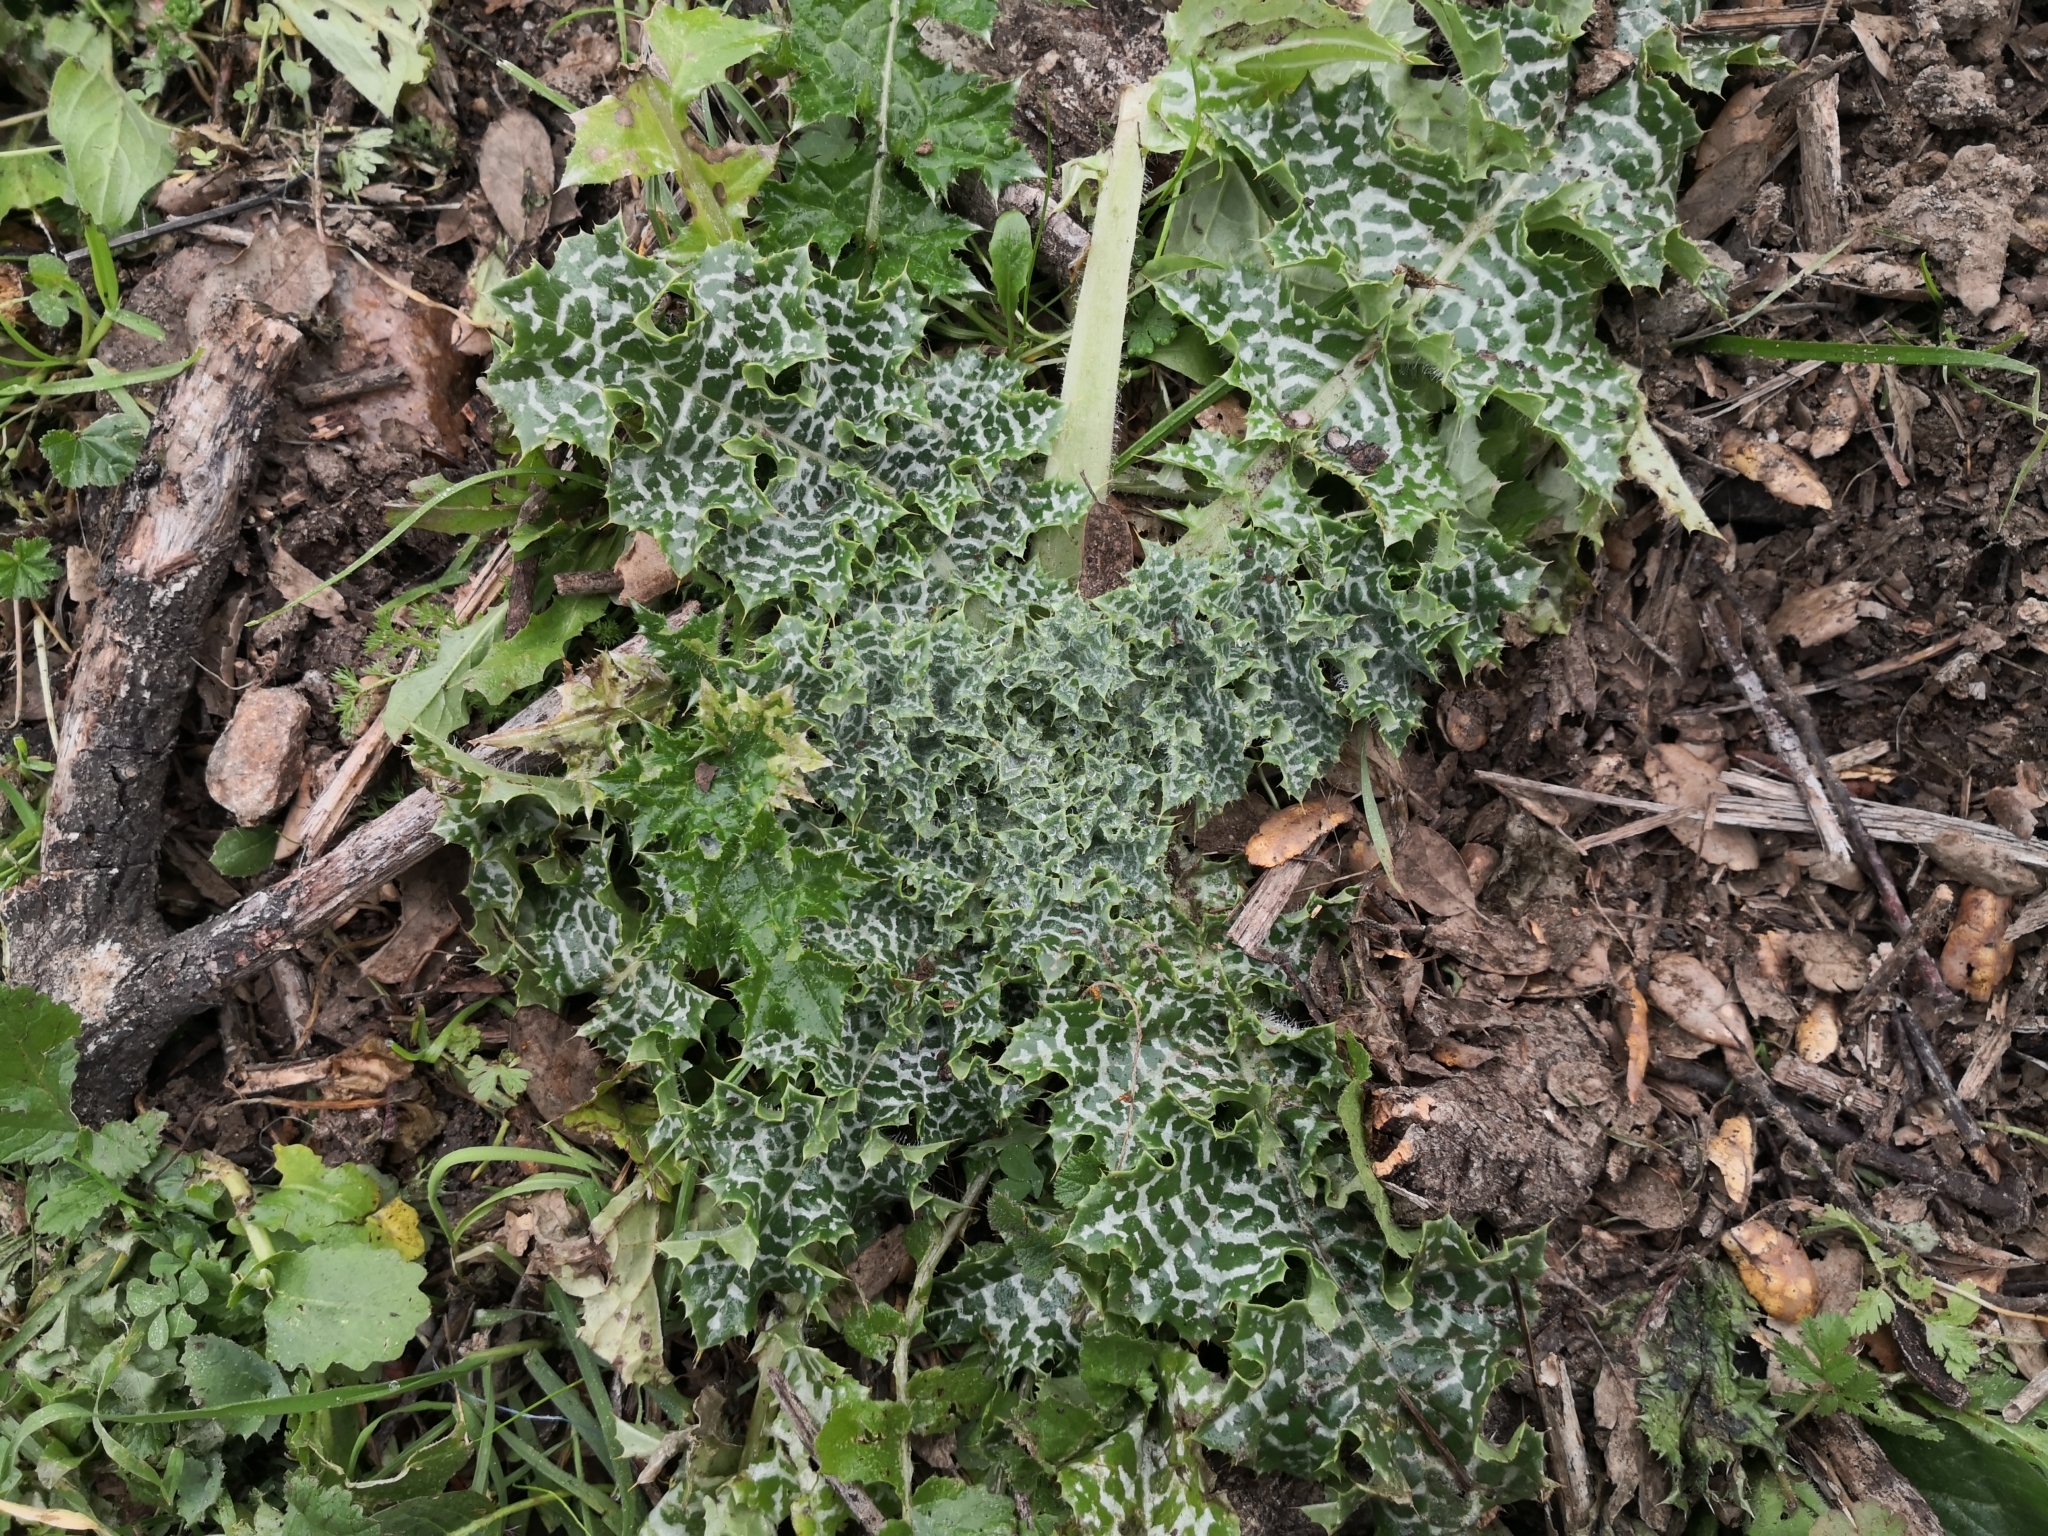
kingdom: Plantae
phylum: Tracheophyta
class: Magnoliopsida
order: Asterales
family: Asteraceae
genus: Silybum
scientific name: Silybum marianum
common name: Milk thistle
